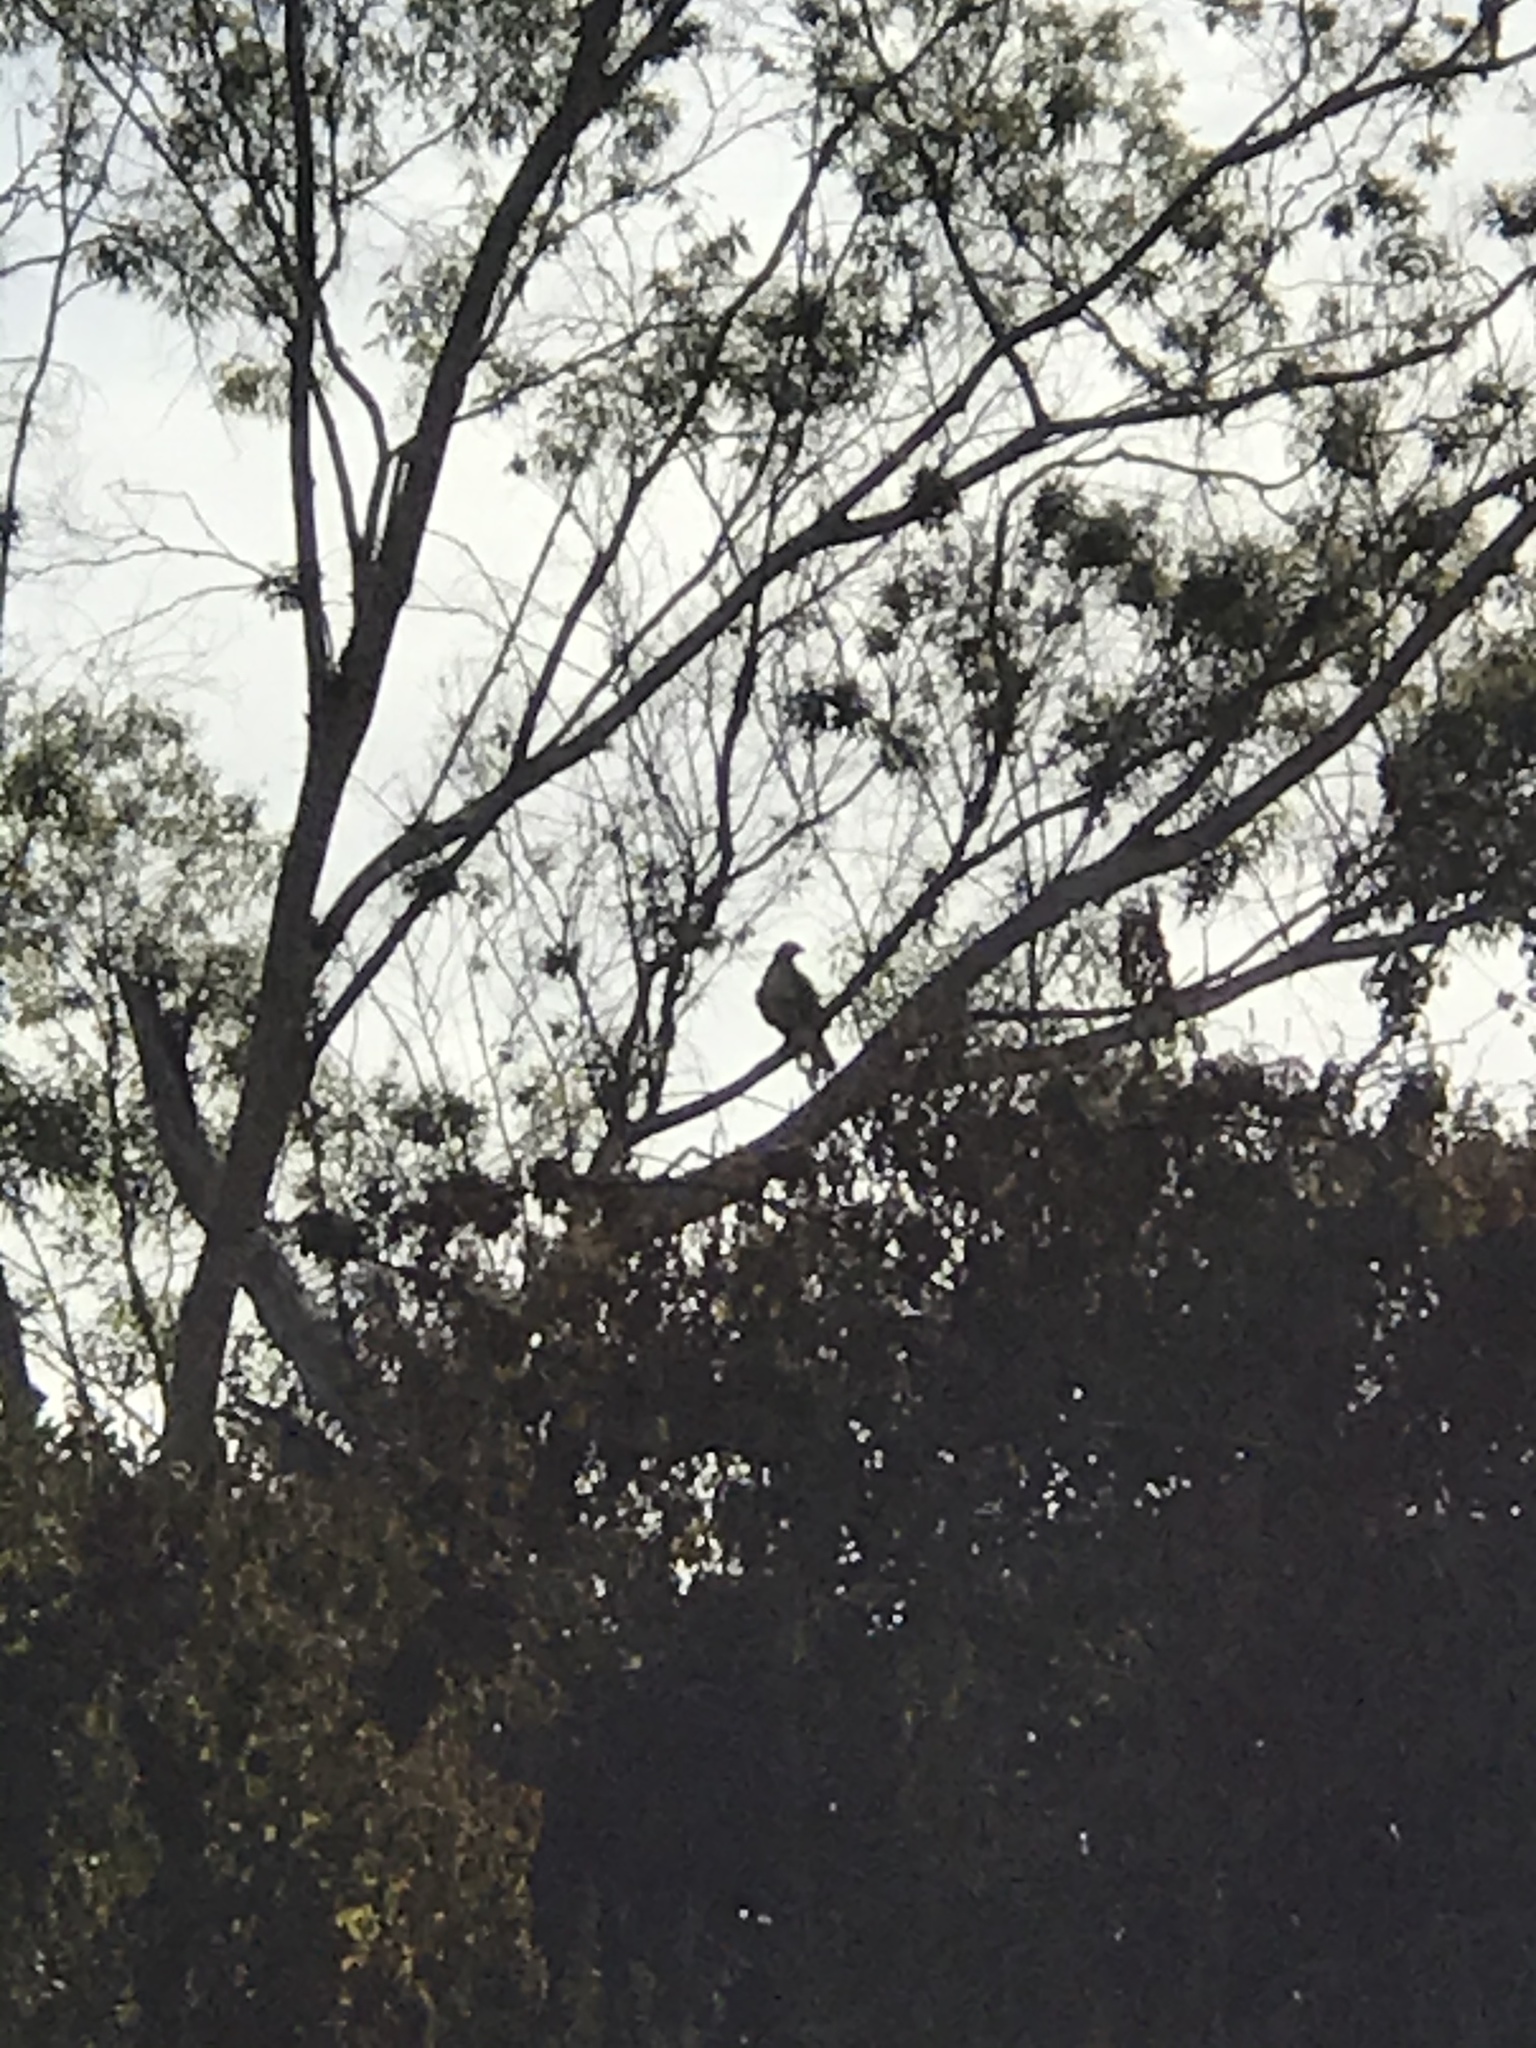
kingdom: Animalia
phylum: Chordata
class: Aves
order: Accipitriformes
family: Accipitridae
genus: Buteo
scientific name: Buteo jamaicensis
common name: Red-tailed hawk
